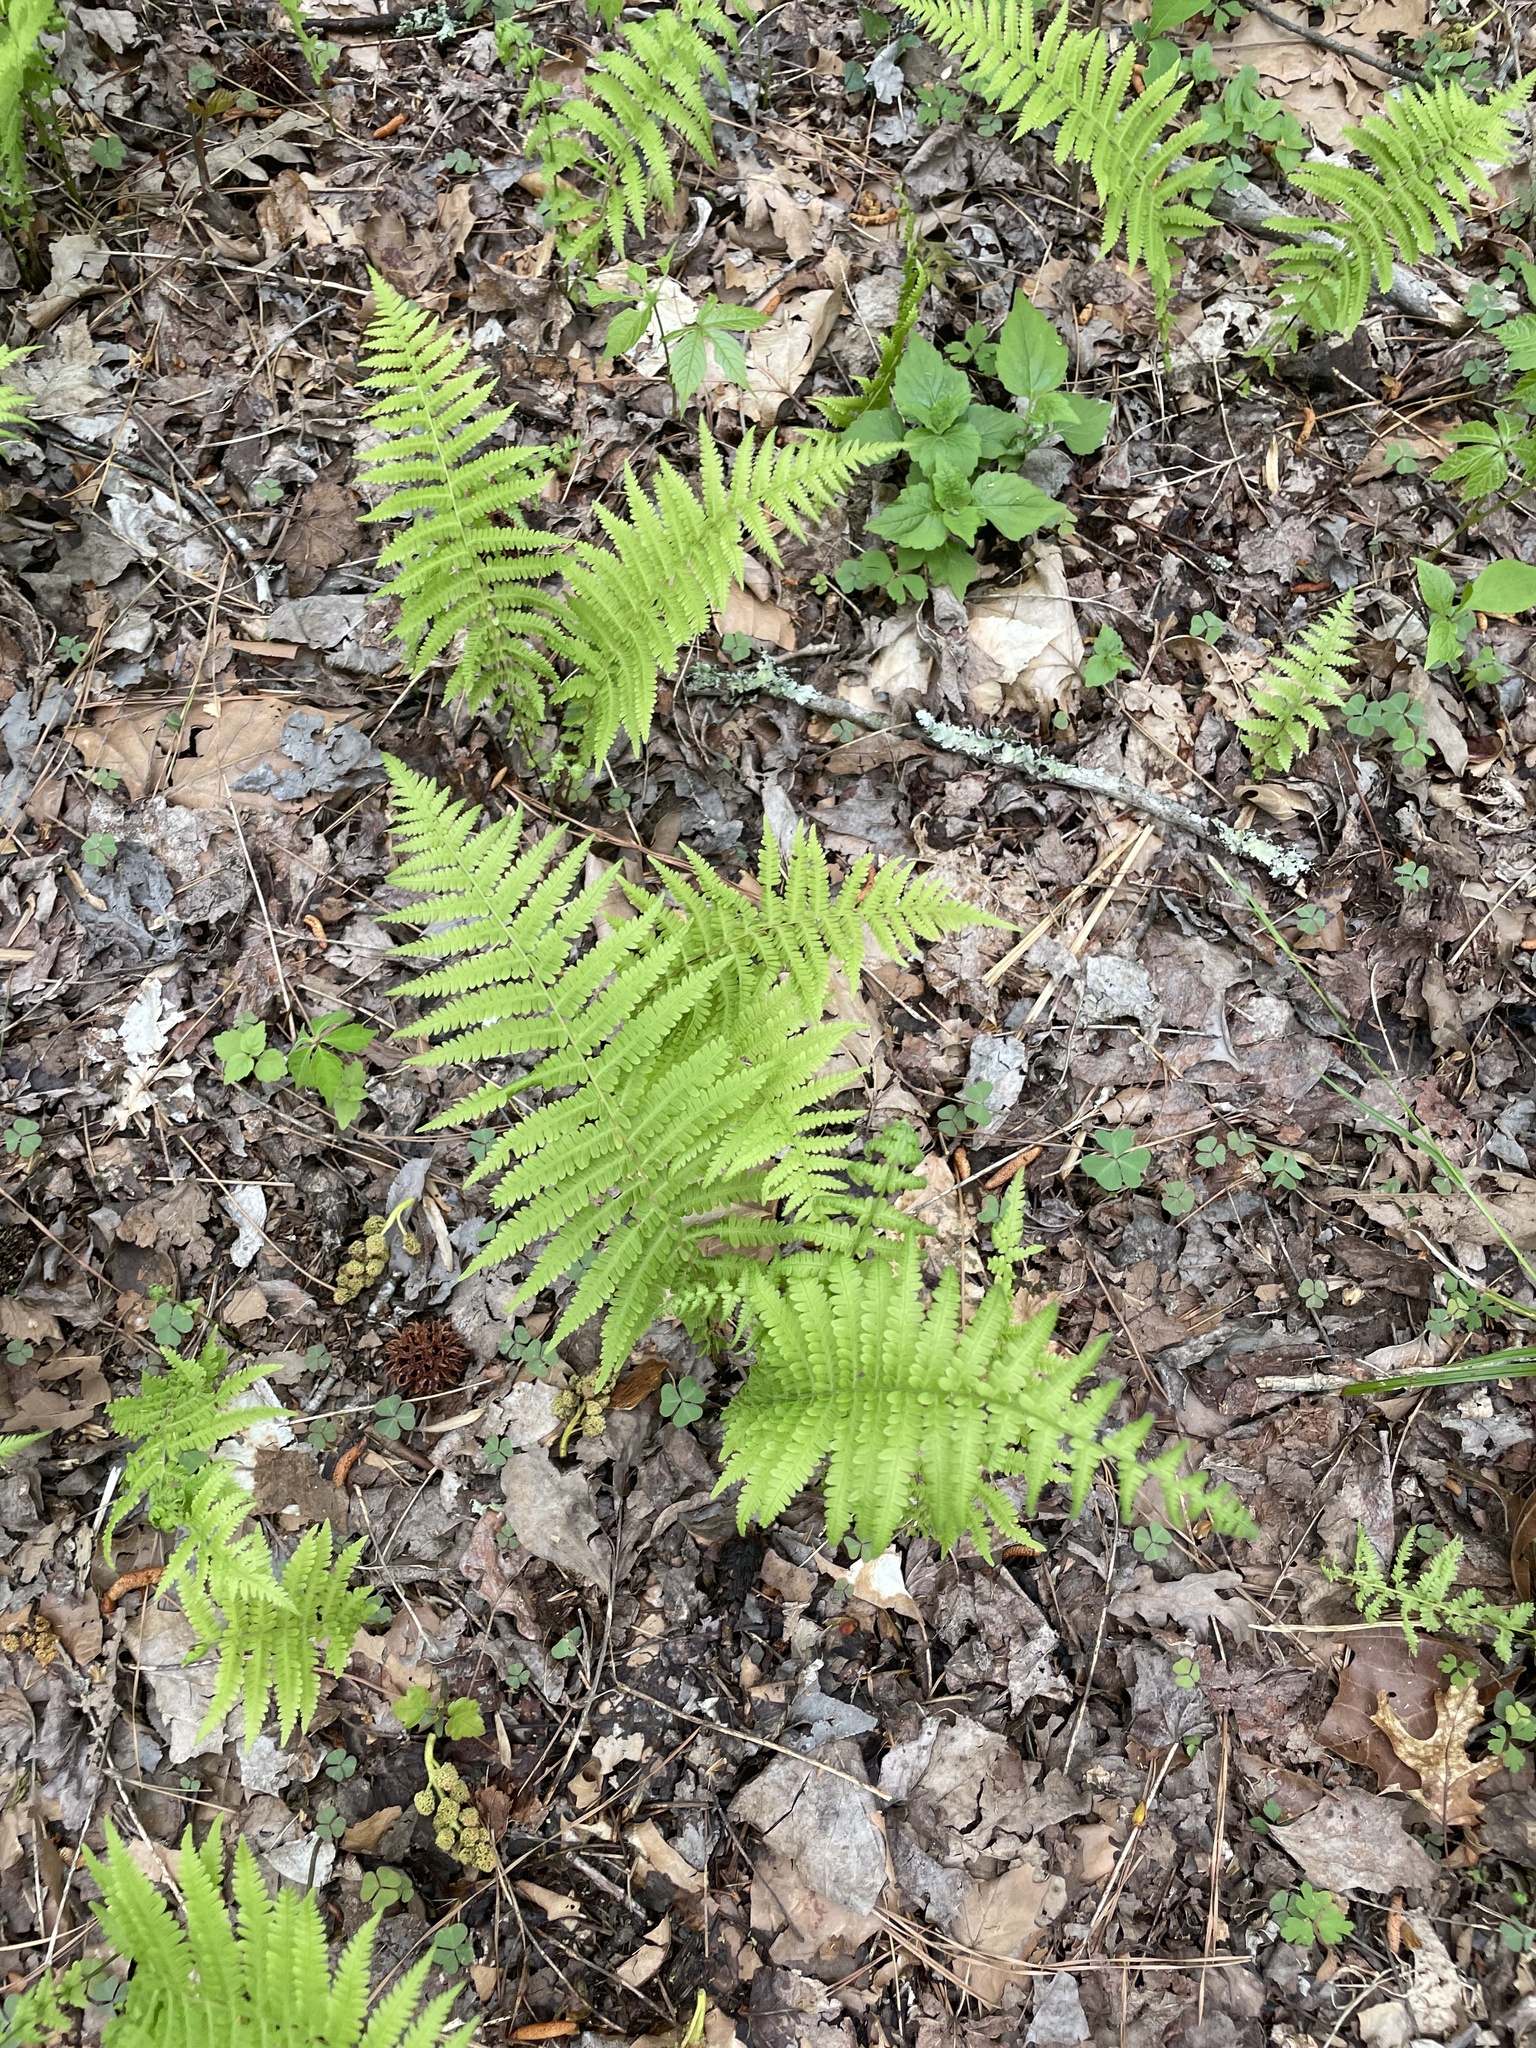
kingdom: Plantae
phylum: Tracheophyta
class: Polypodiopsida
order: Polypodiales
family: Thelypteridaceae
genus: Amauropelta
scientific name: Amauropelta noveboracensis
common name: New york fern
